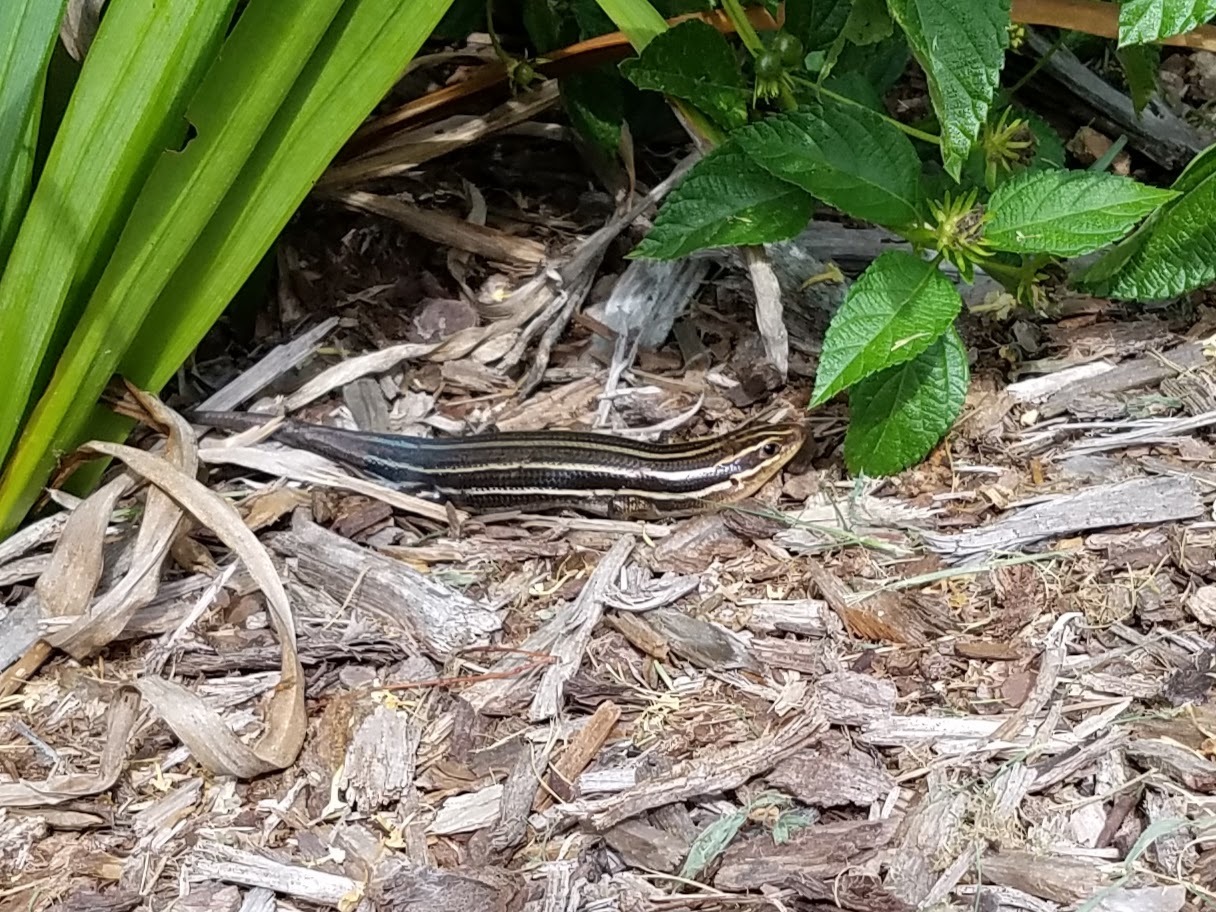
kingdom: Animalia
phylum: Chordata
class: Squamata
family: Scincidae
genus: Plestiodon
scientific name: Plestiodon laticeps
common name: Broadhead skink
